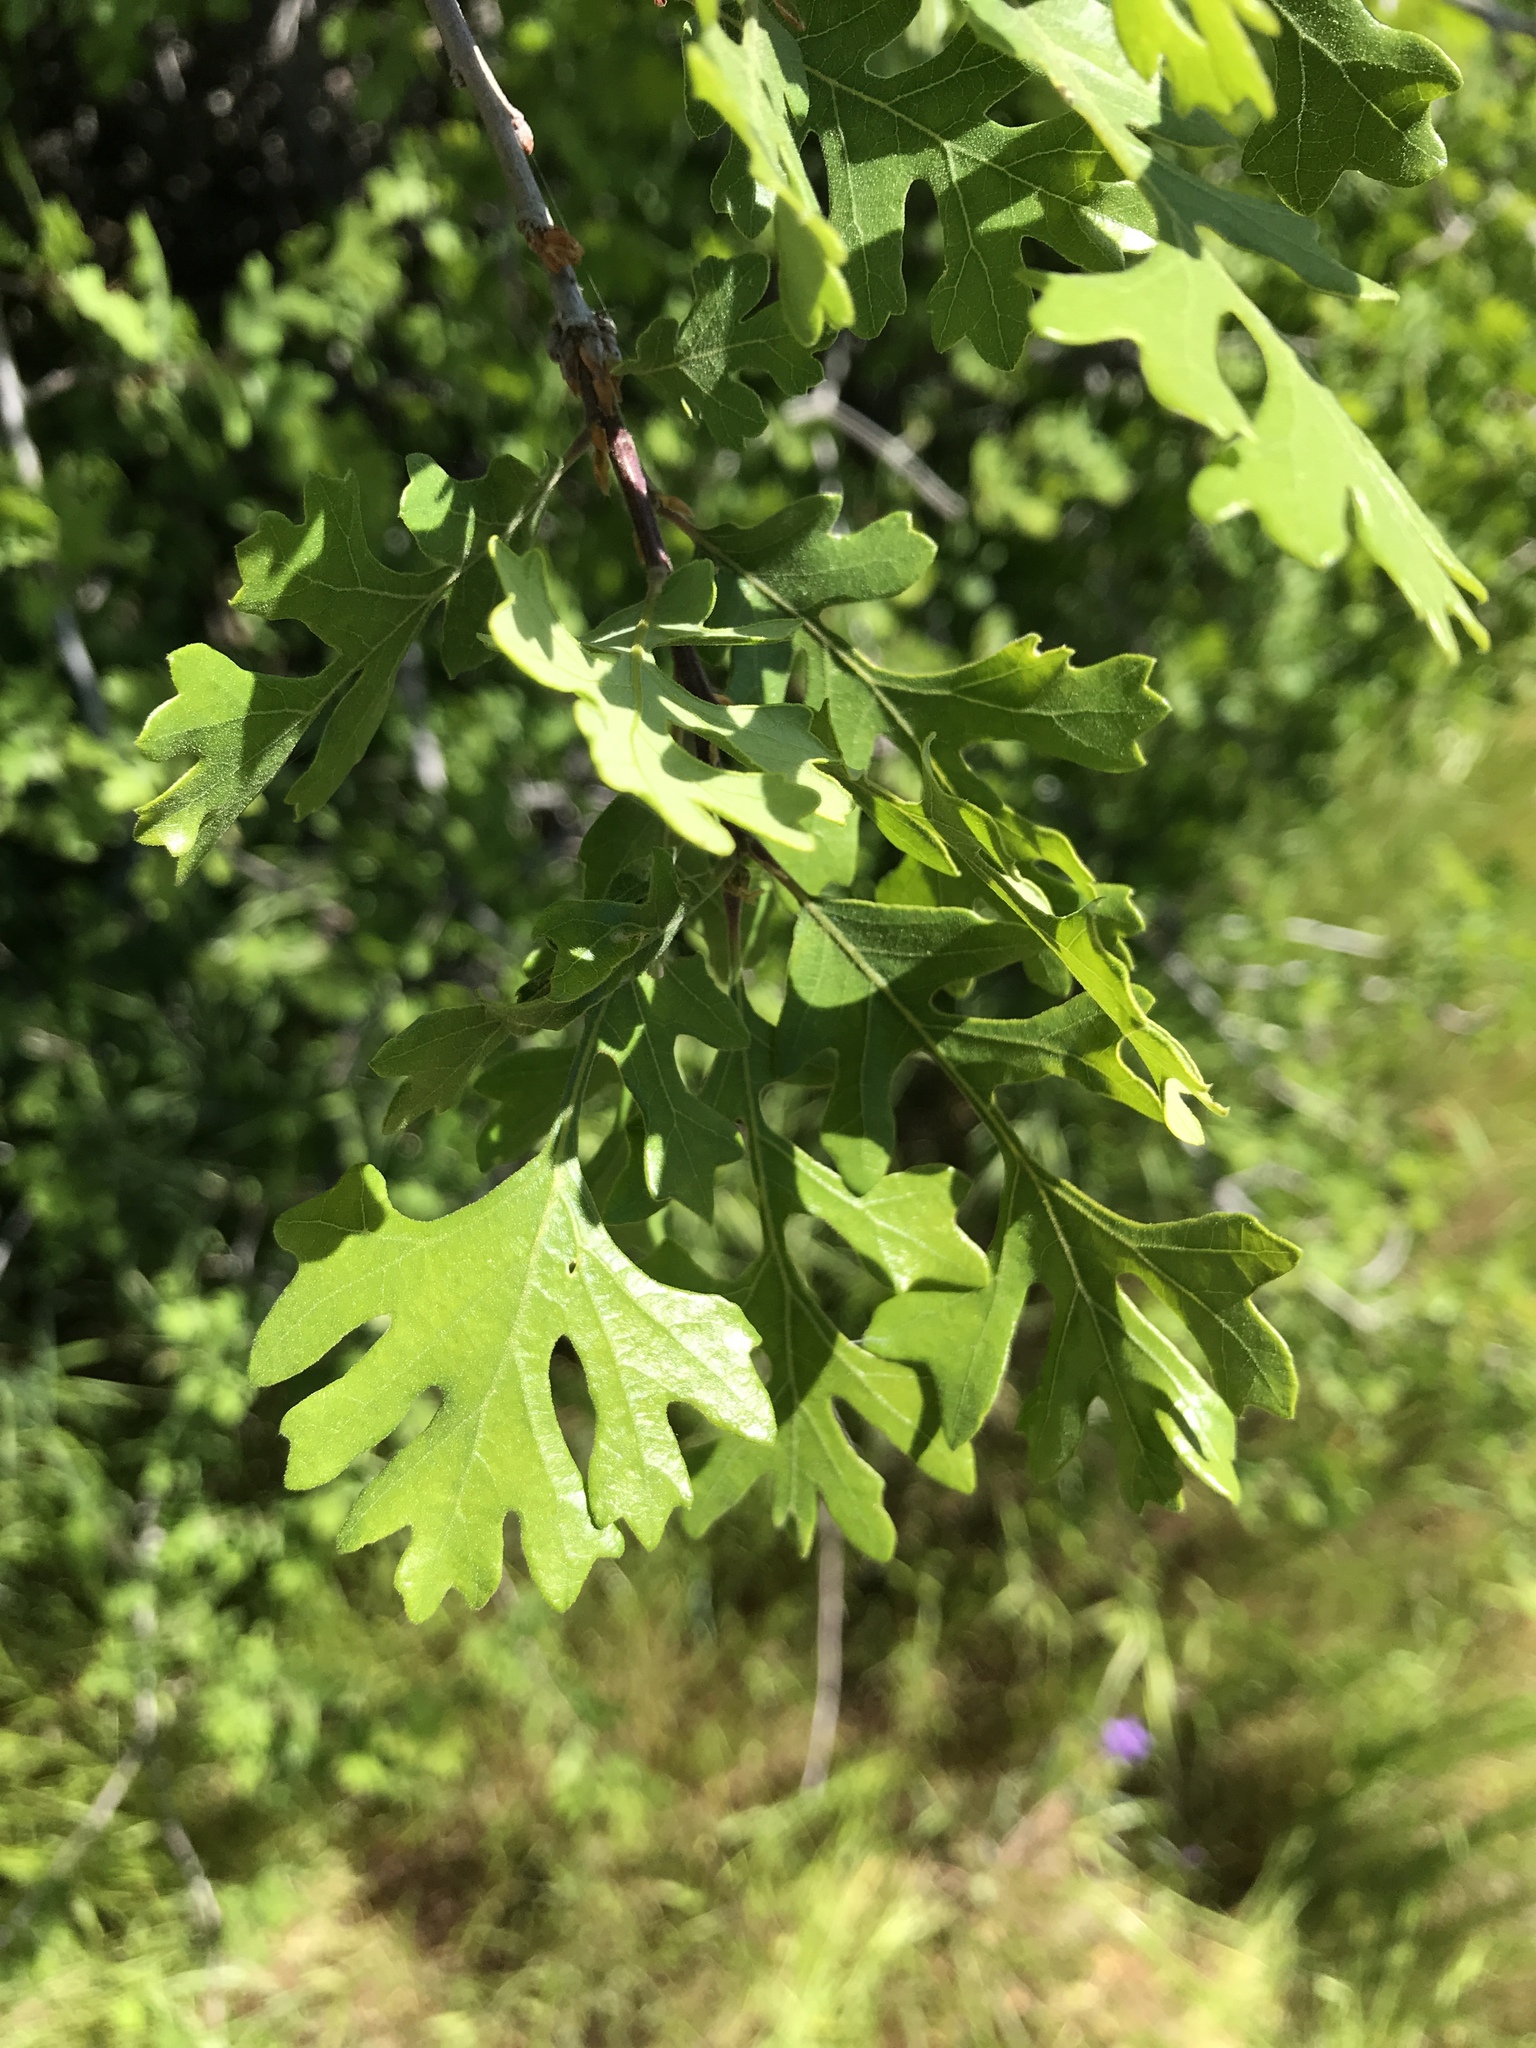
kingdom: Plantae
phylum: Tracheophyta
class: Magnoliopsida
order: Fagales
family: Fagaceae
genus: Quercus
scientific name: Quercus lobata
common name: Valley oak
